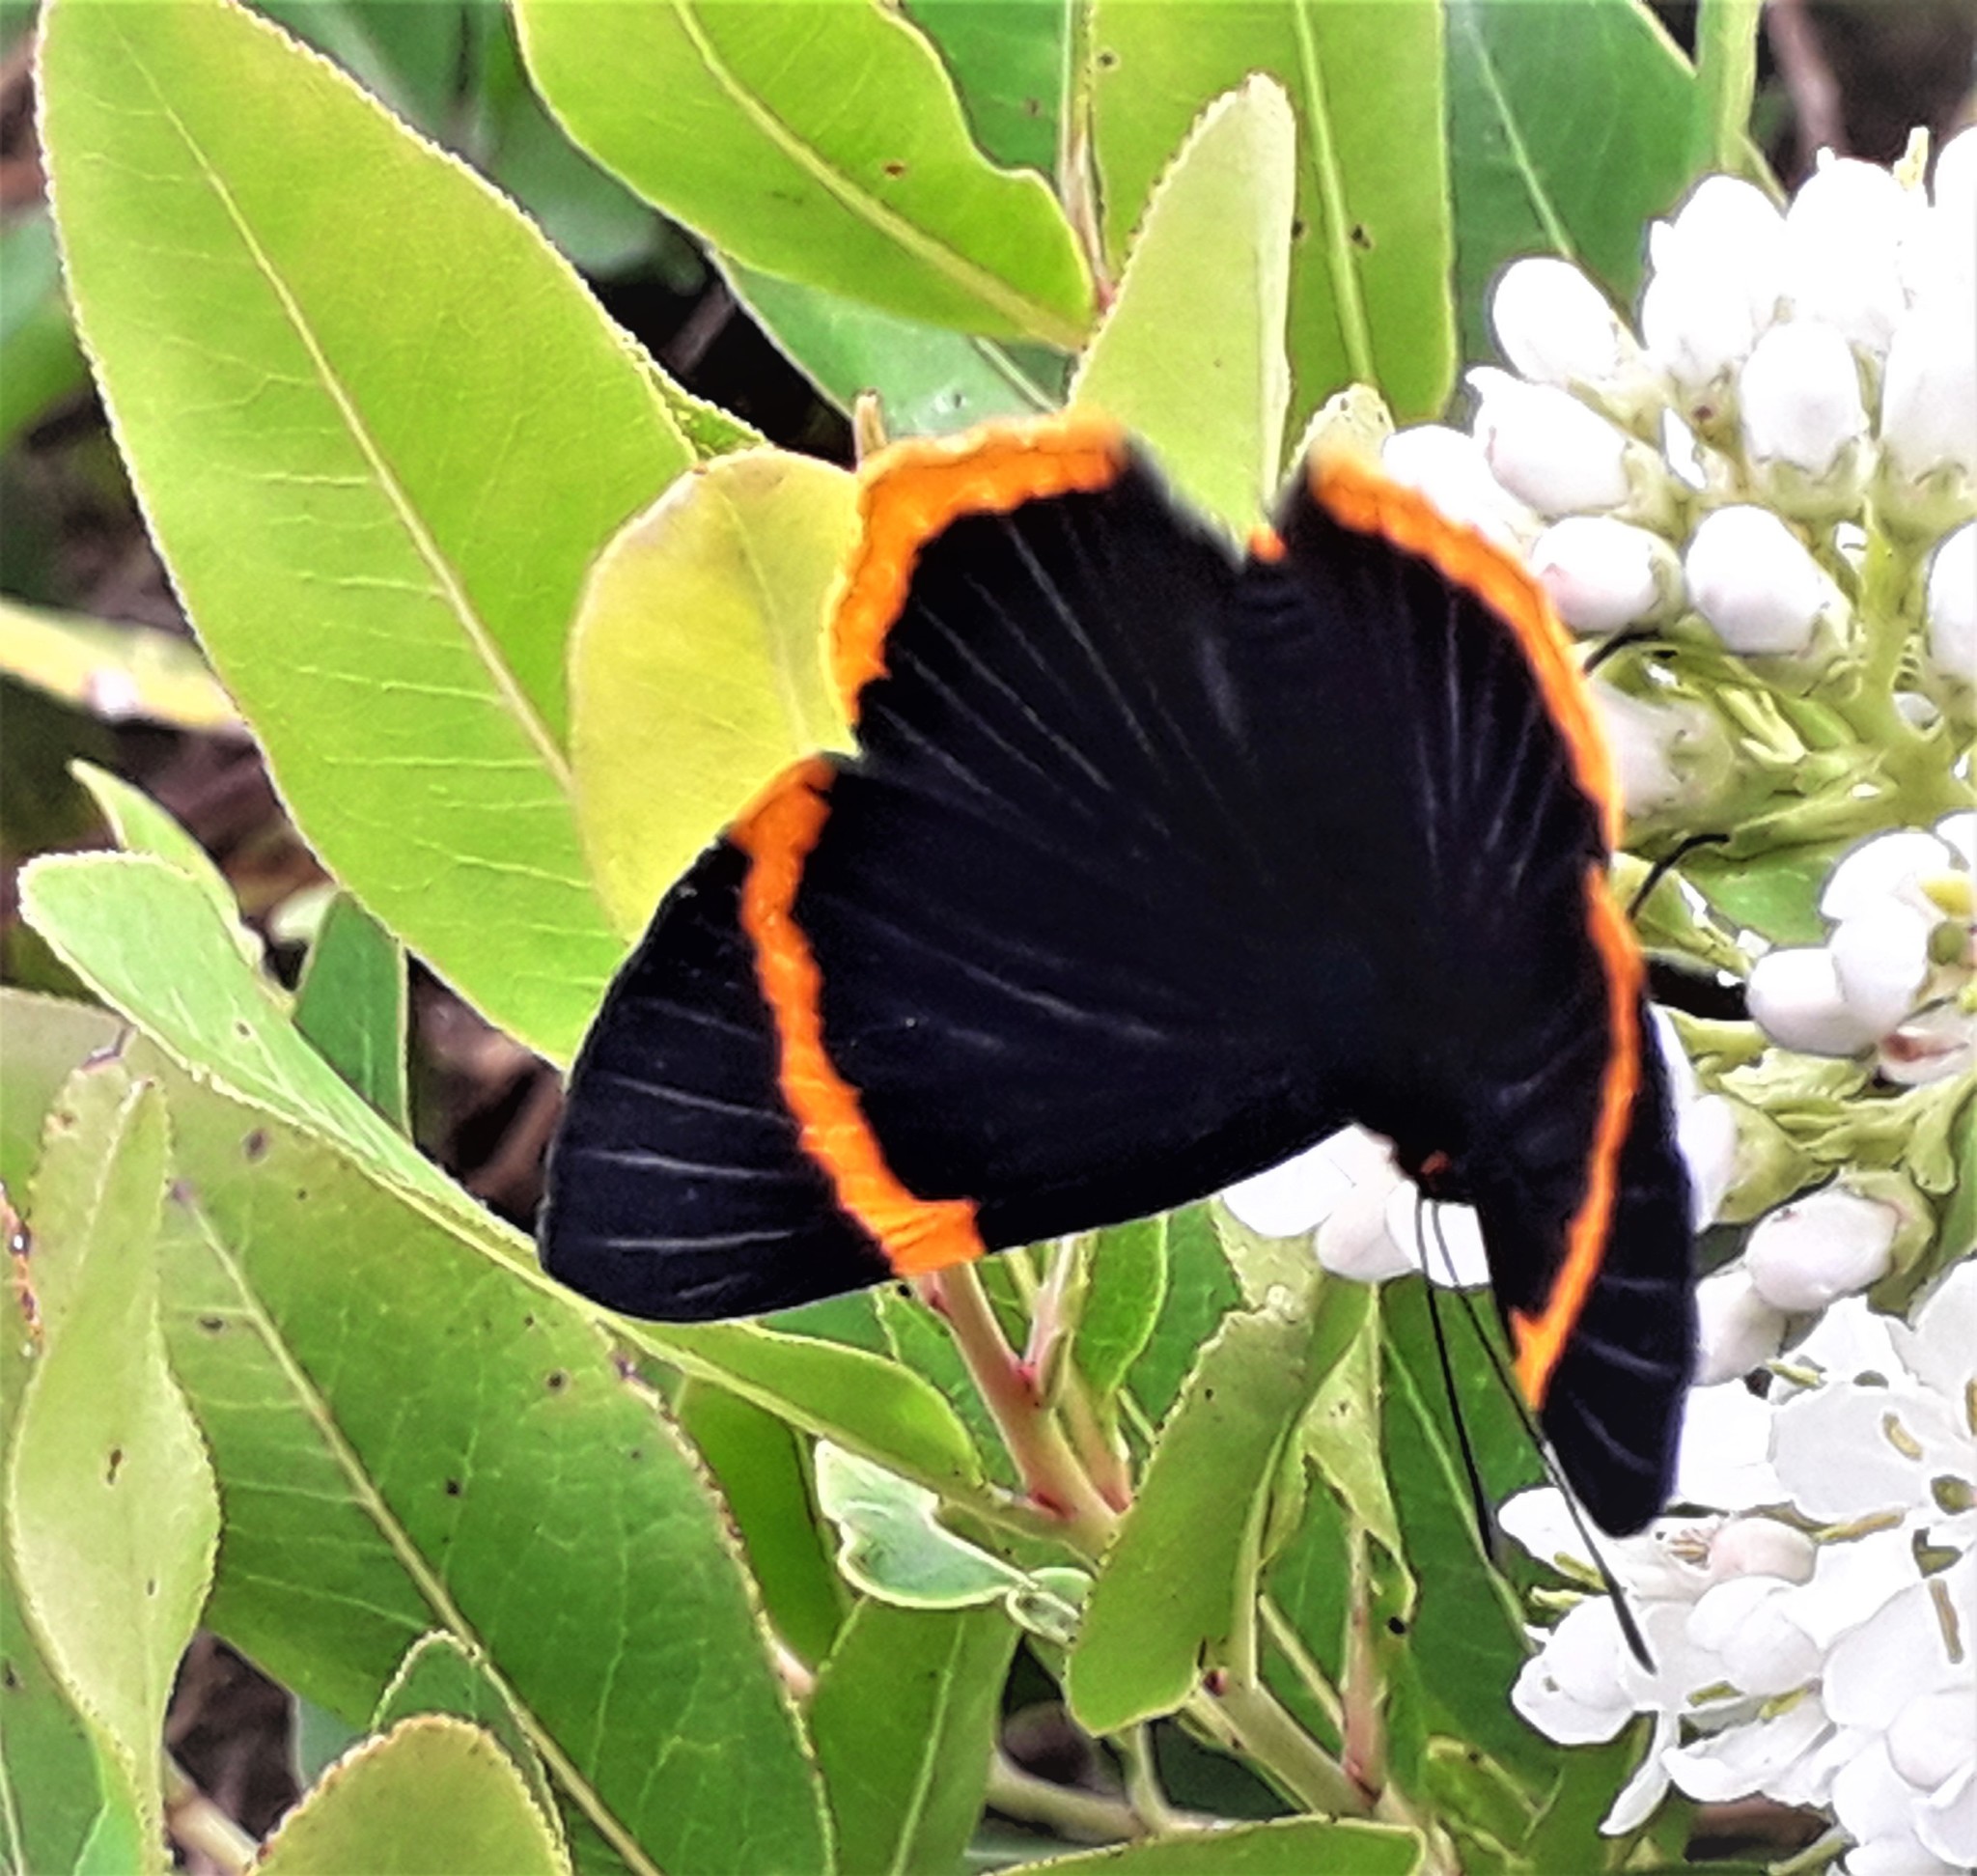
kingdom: Animalia
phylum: Arthropoda
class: Insecta
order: Lepidoptera
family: Riodinidae
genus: Riodina
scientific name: Riodina lycisca
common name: Lycisca metalmark
